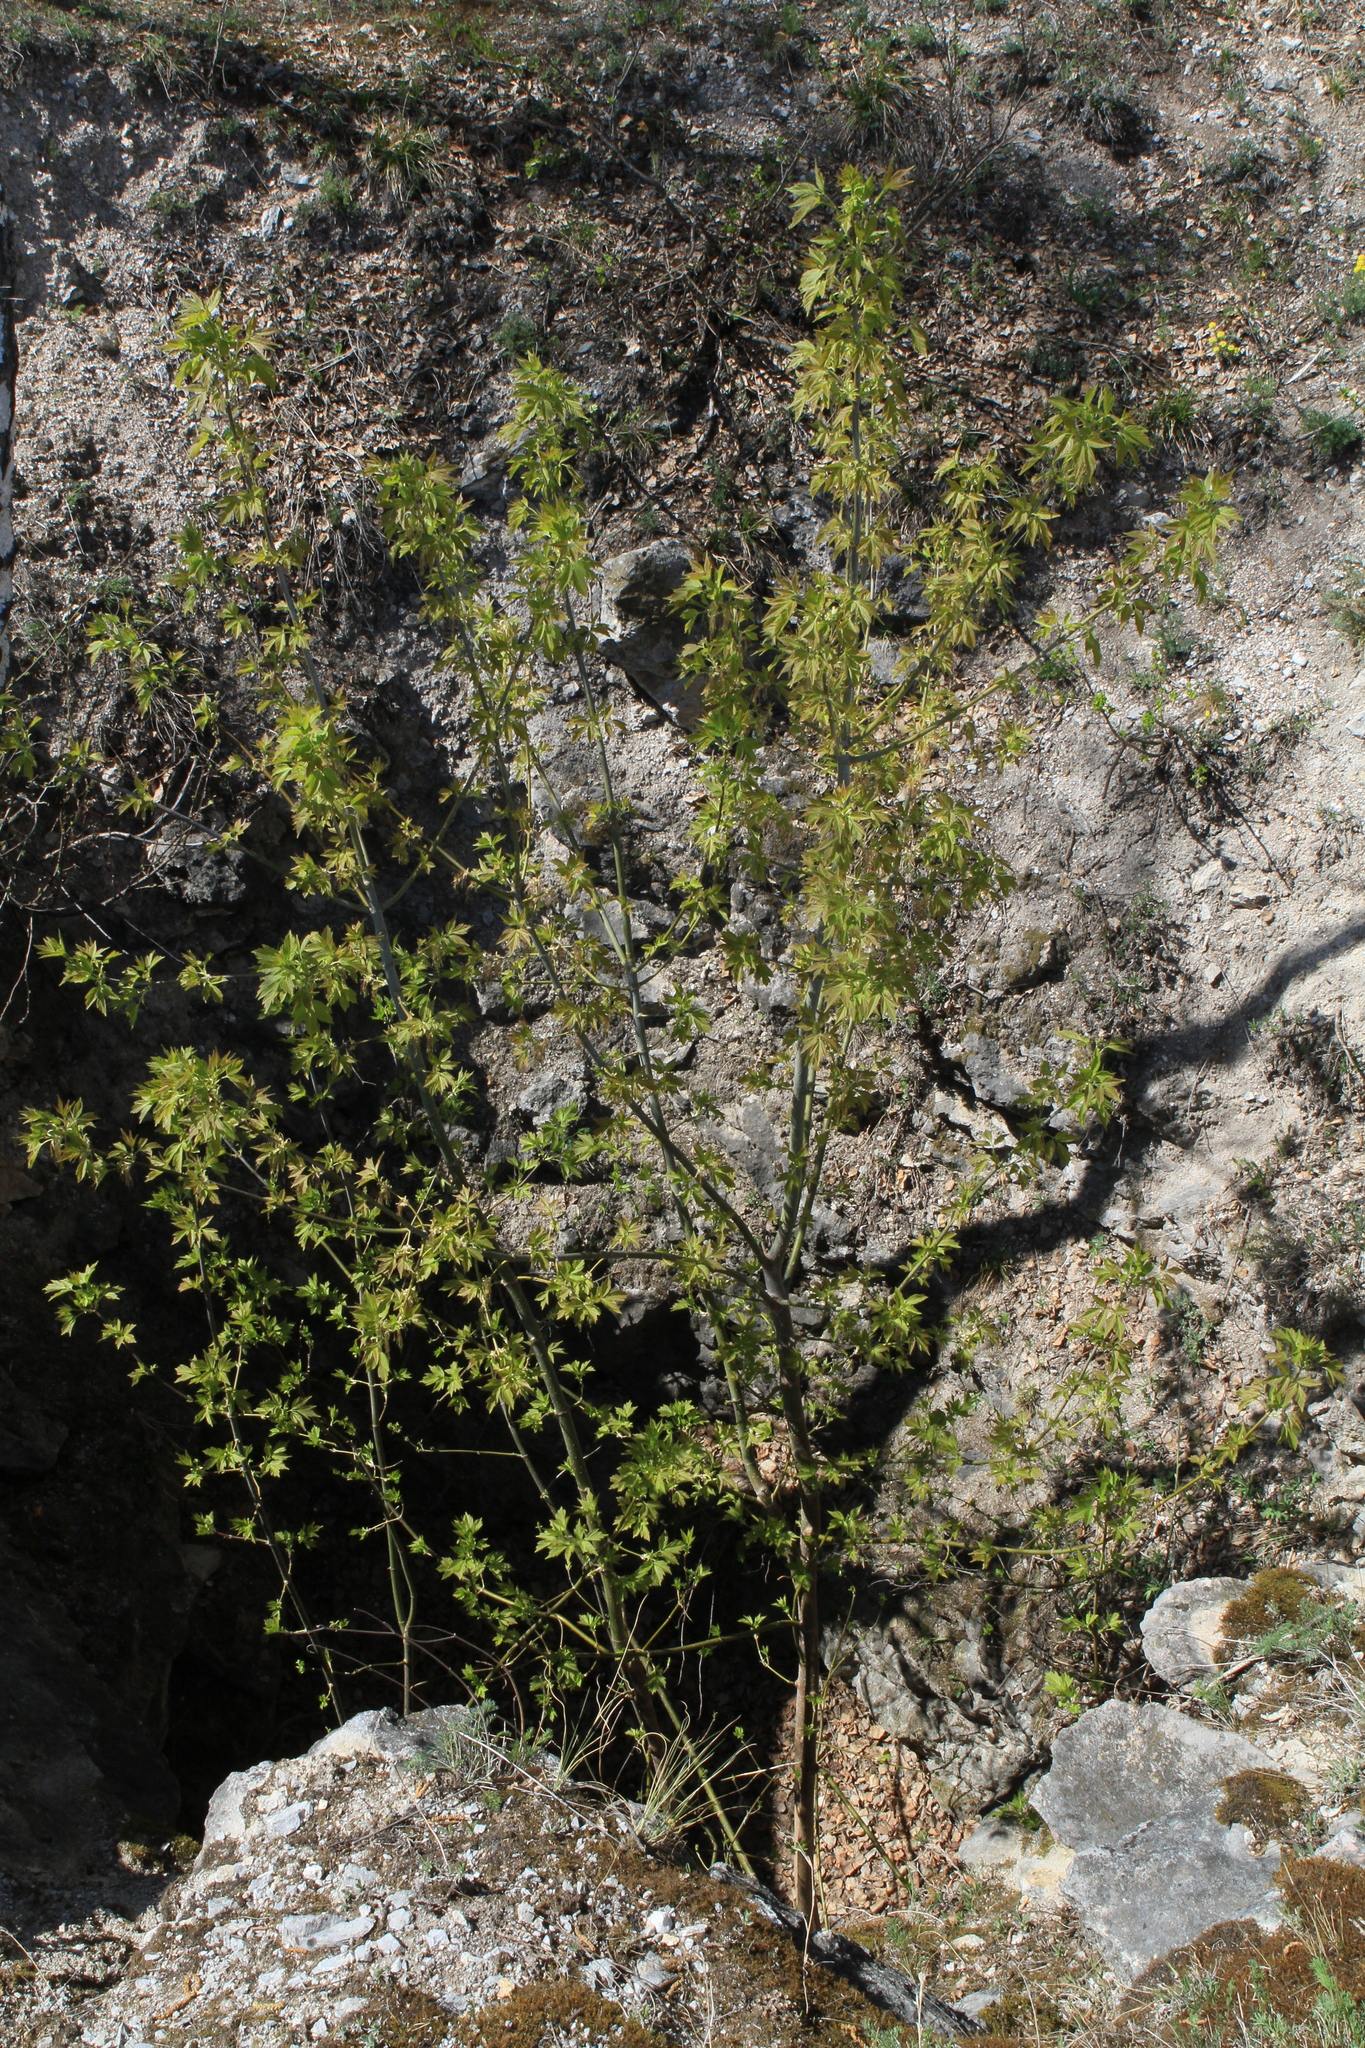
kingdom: Plantae
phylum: Tracheophyta
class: Magnoliopsida
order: Sapindales
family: Sapindaceae
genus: Acer
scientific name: Acer negundo
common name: Ashleaf maple
